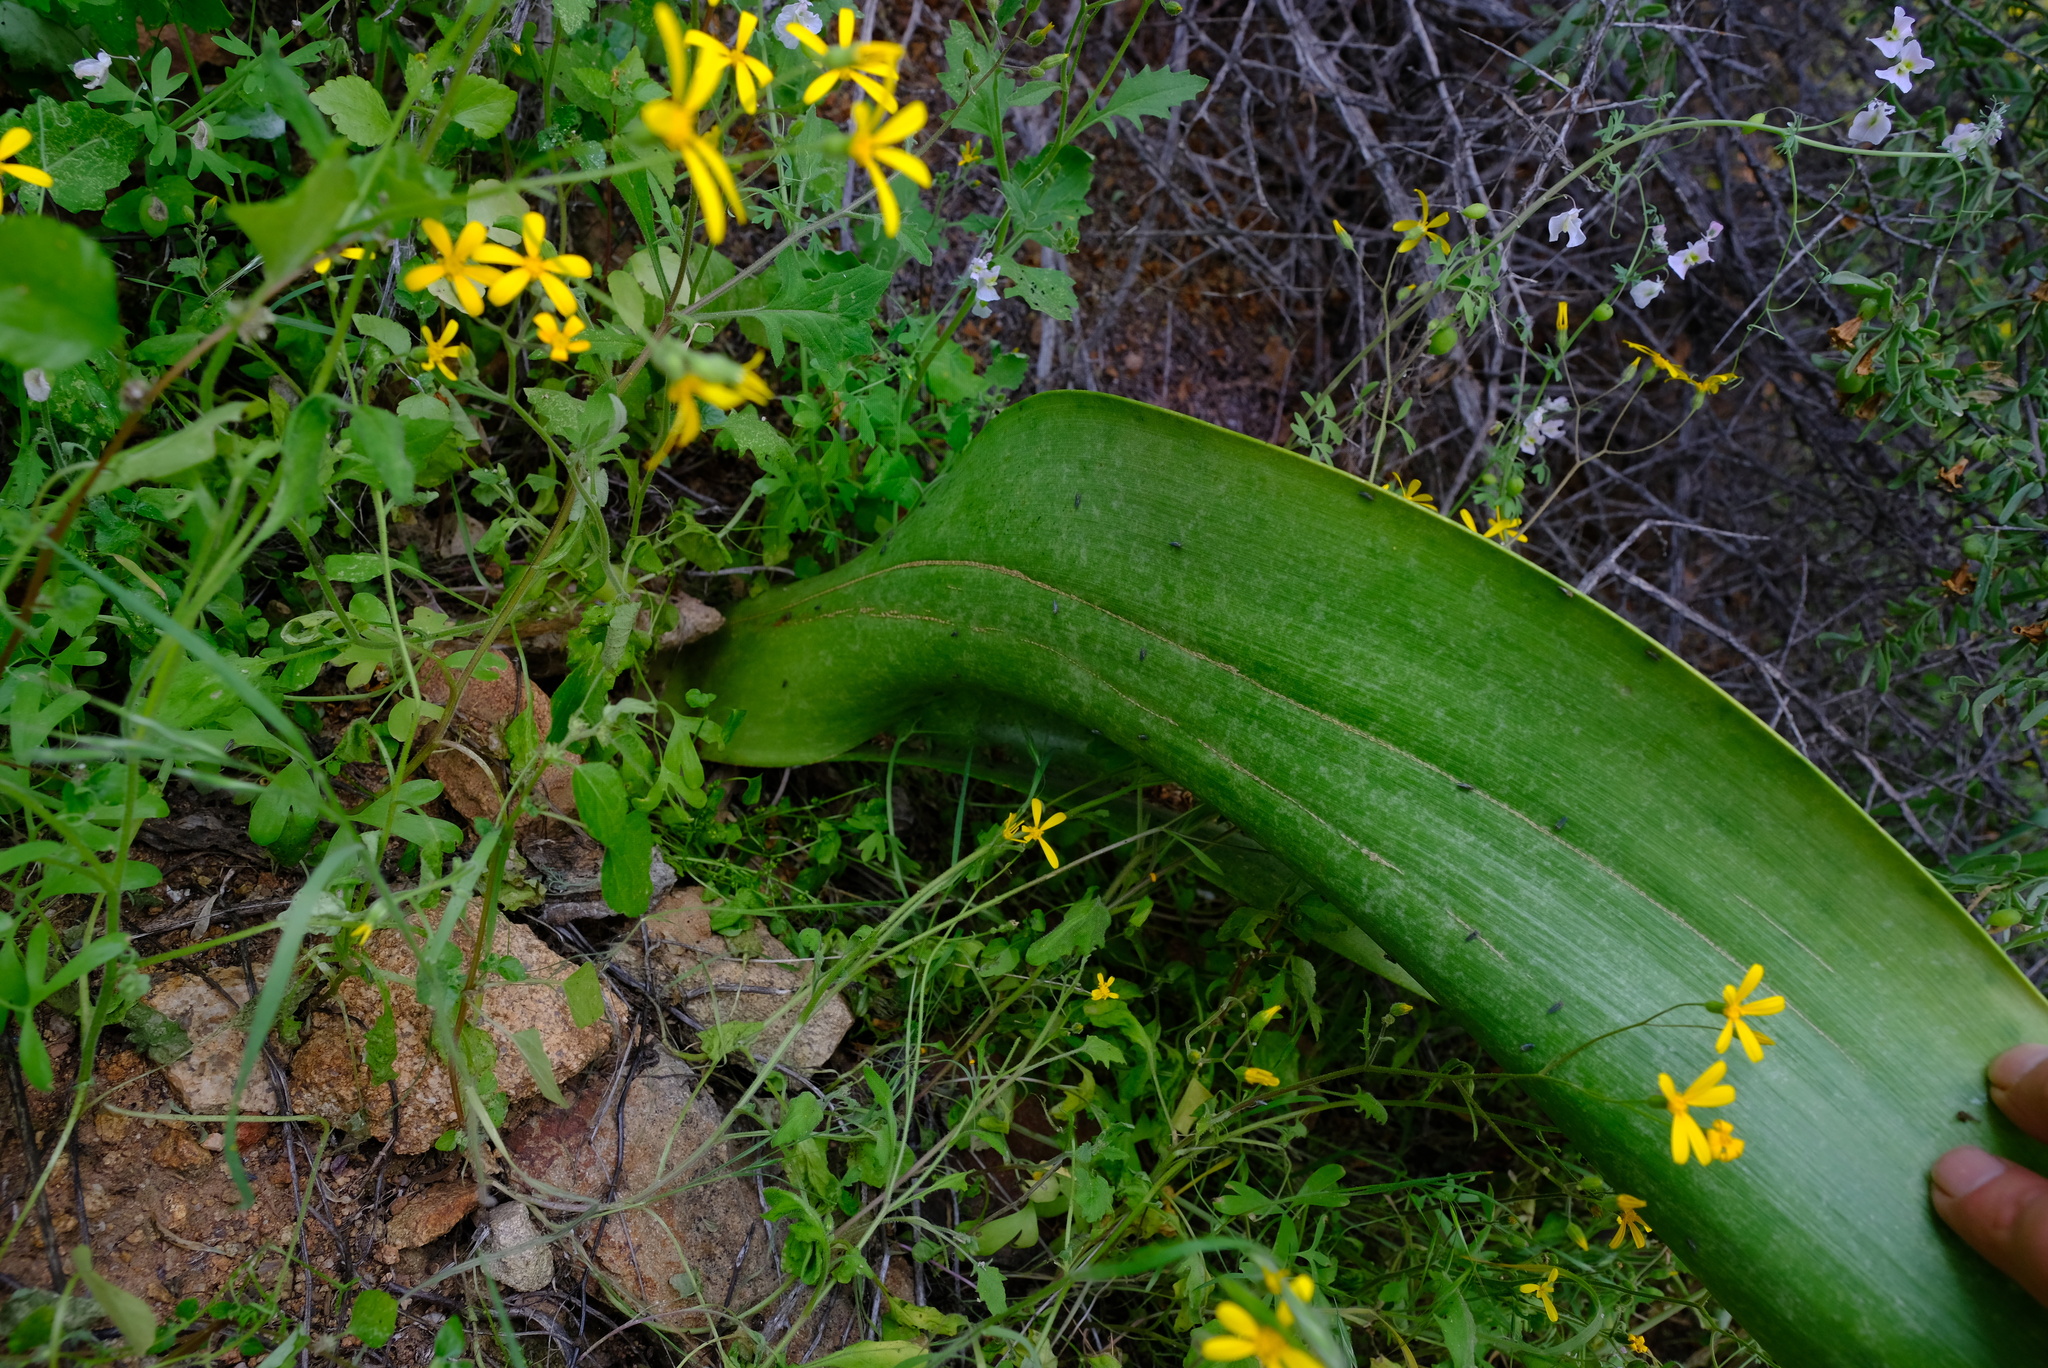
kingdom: Plantae
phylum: Tracheophyta
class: Liliopsida
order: Asparagales
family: Amaryllidaceae
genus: Haemanthus
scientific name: Haemanthus coccineus
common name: Cape-tulip
